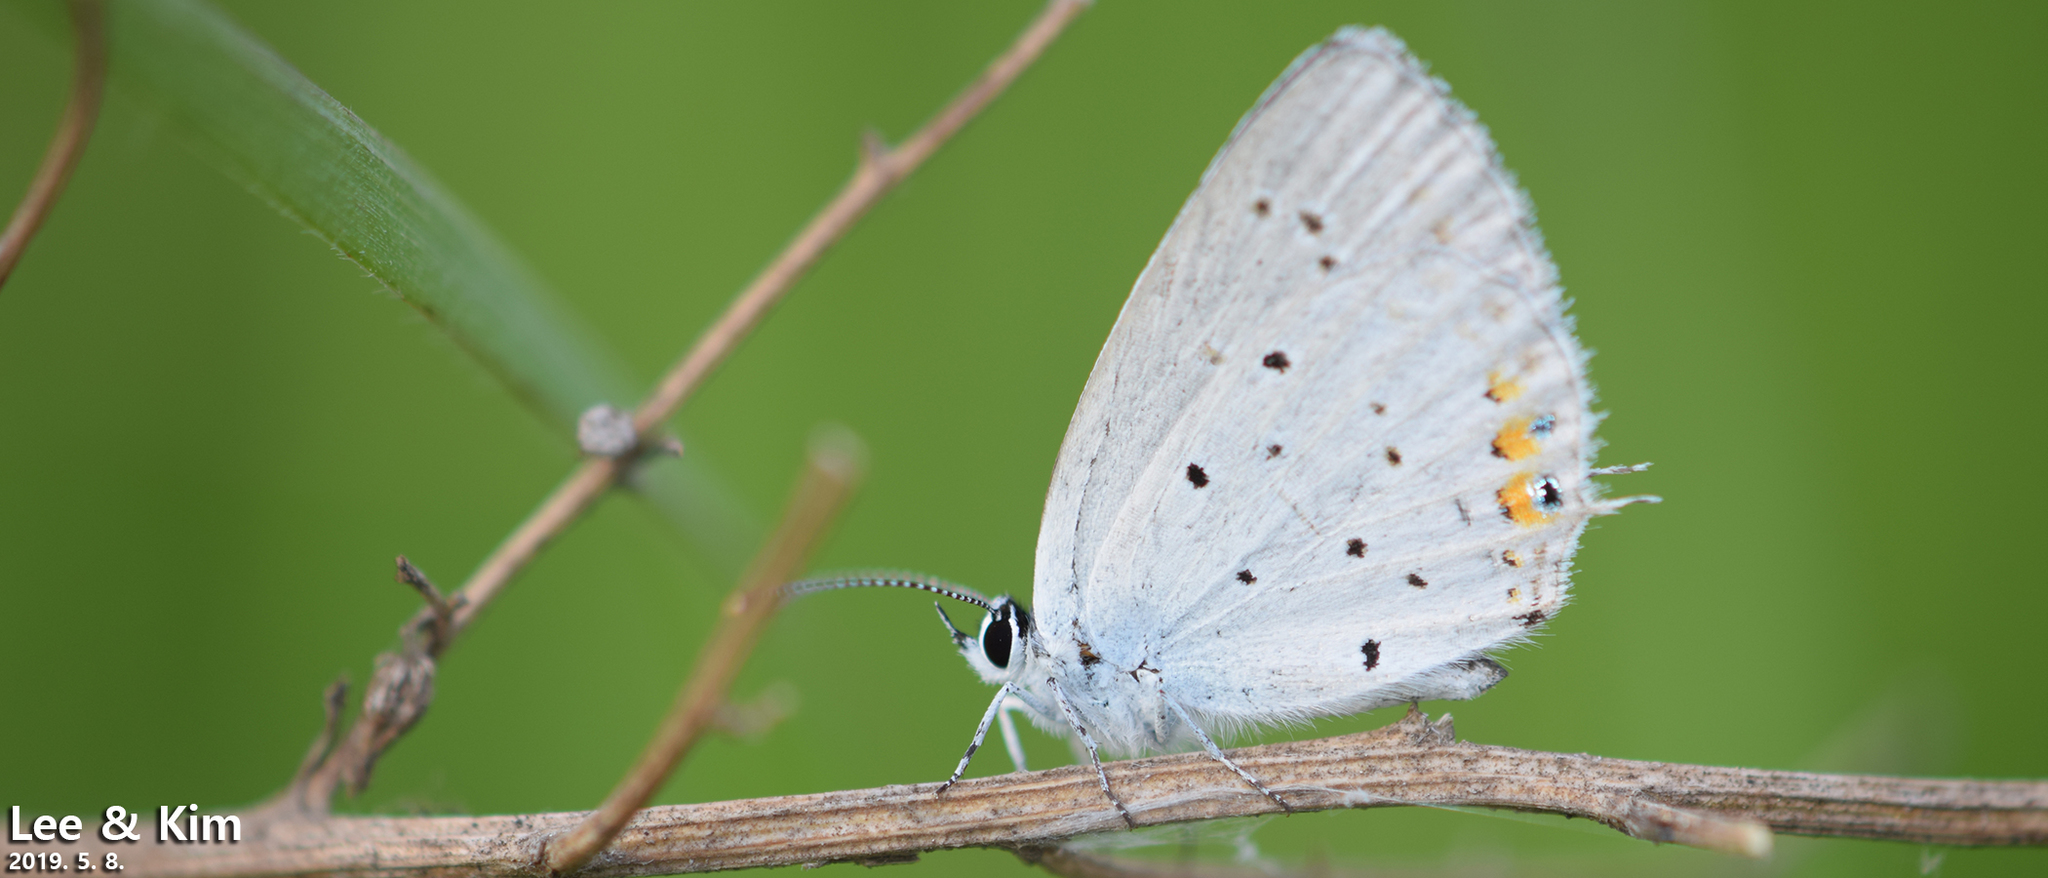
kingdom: Animalia
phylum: Arthropoda
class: Insecta
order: Lepidoptera
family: Lycaenidae
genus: Elkalyce
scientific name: Elkalyce argiades
